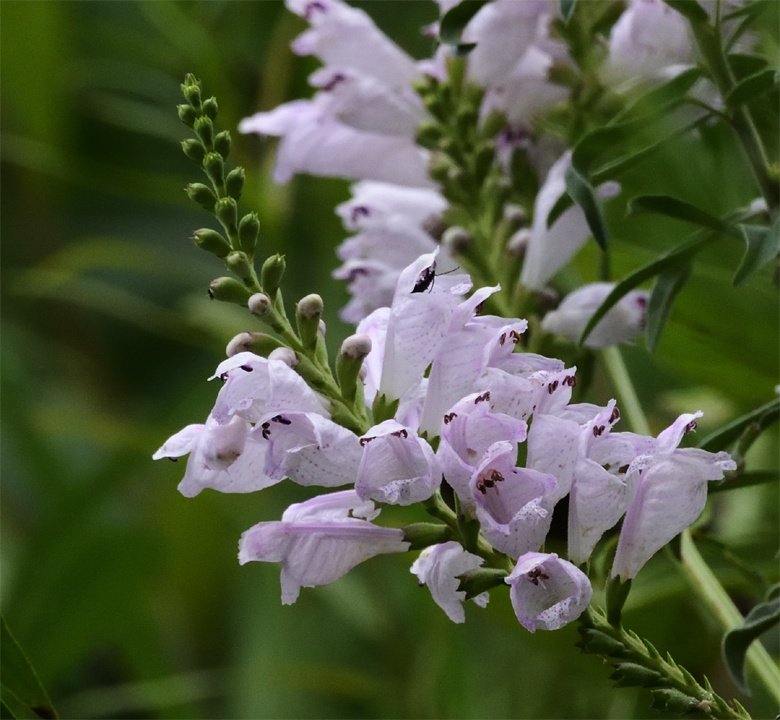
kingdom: Plantae
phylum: Tracheophyta
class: Magnoliopsida
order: Lamiales
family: Lamiaceae
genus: Physostegia
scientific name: Physostegia virginiana
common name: Obedient-plant
